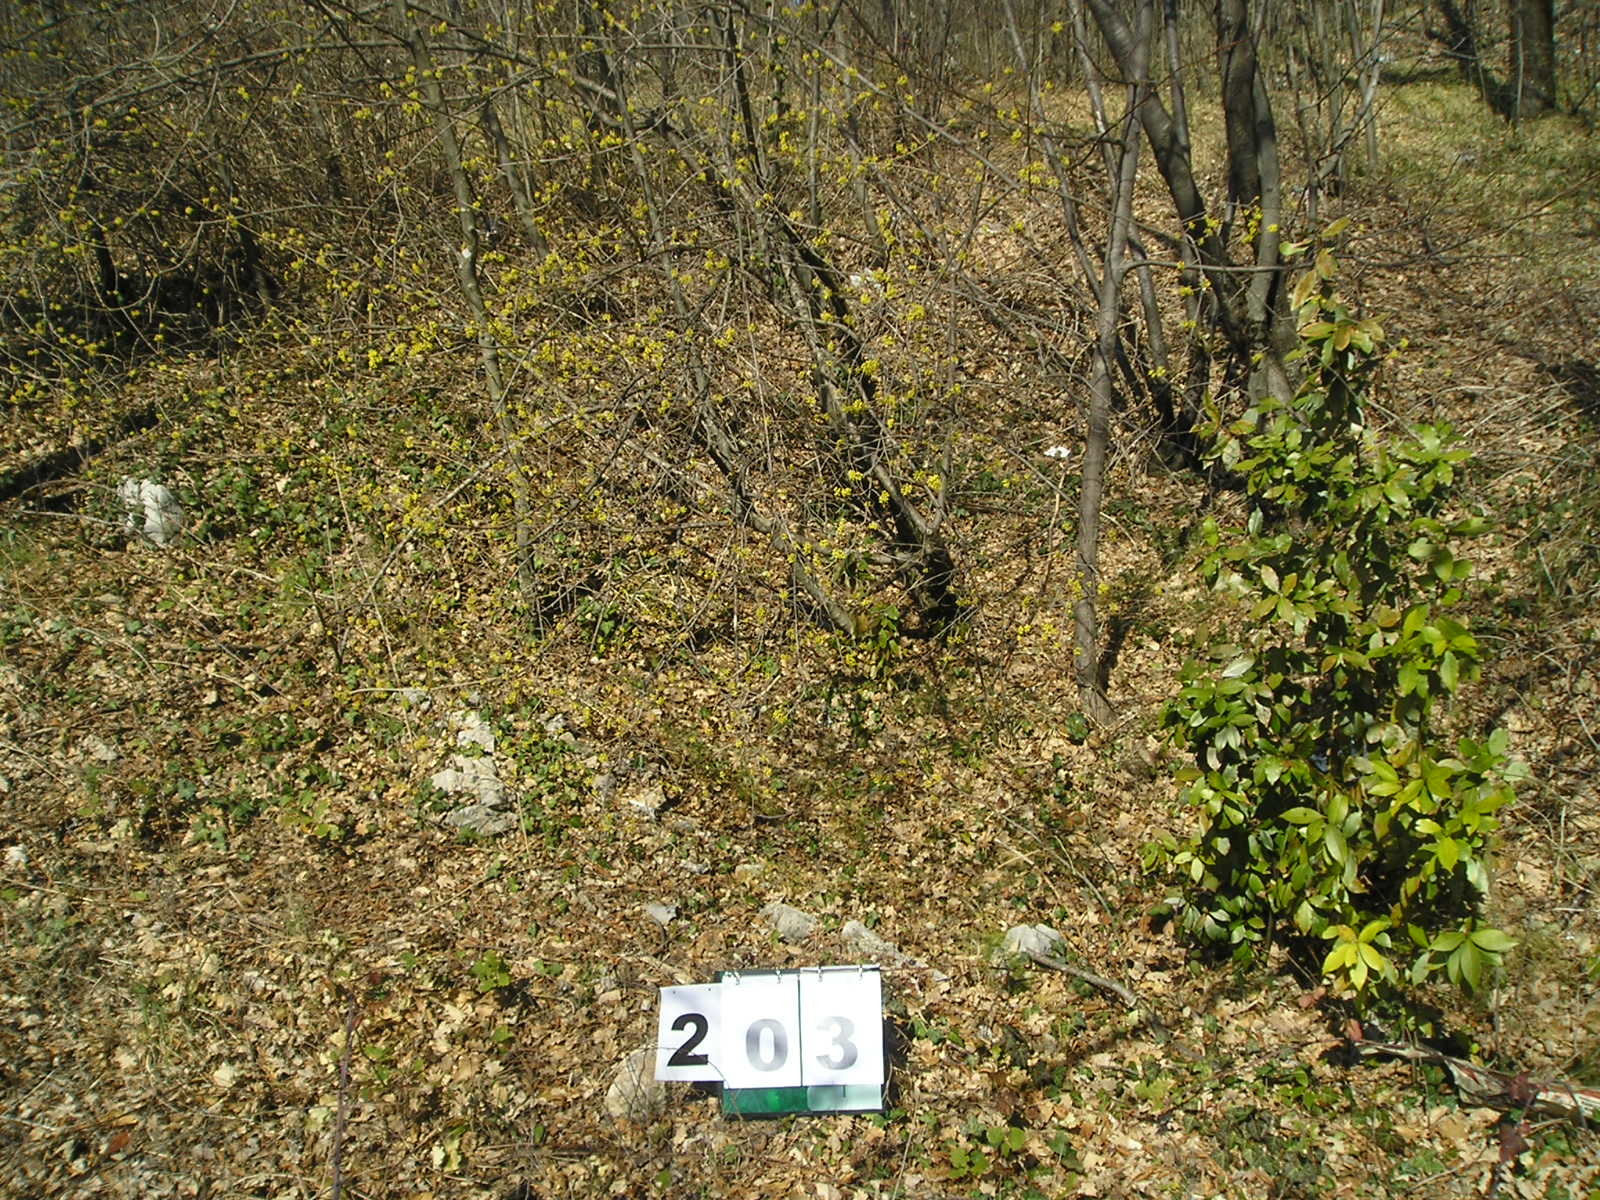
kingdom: Plantae
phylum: Tracheophyta
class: Magnoliopsida
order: Cornales
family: Cornaceae
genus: Cornus
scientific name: Cornus mas
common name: Cornelian-cherry
